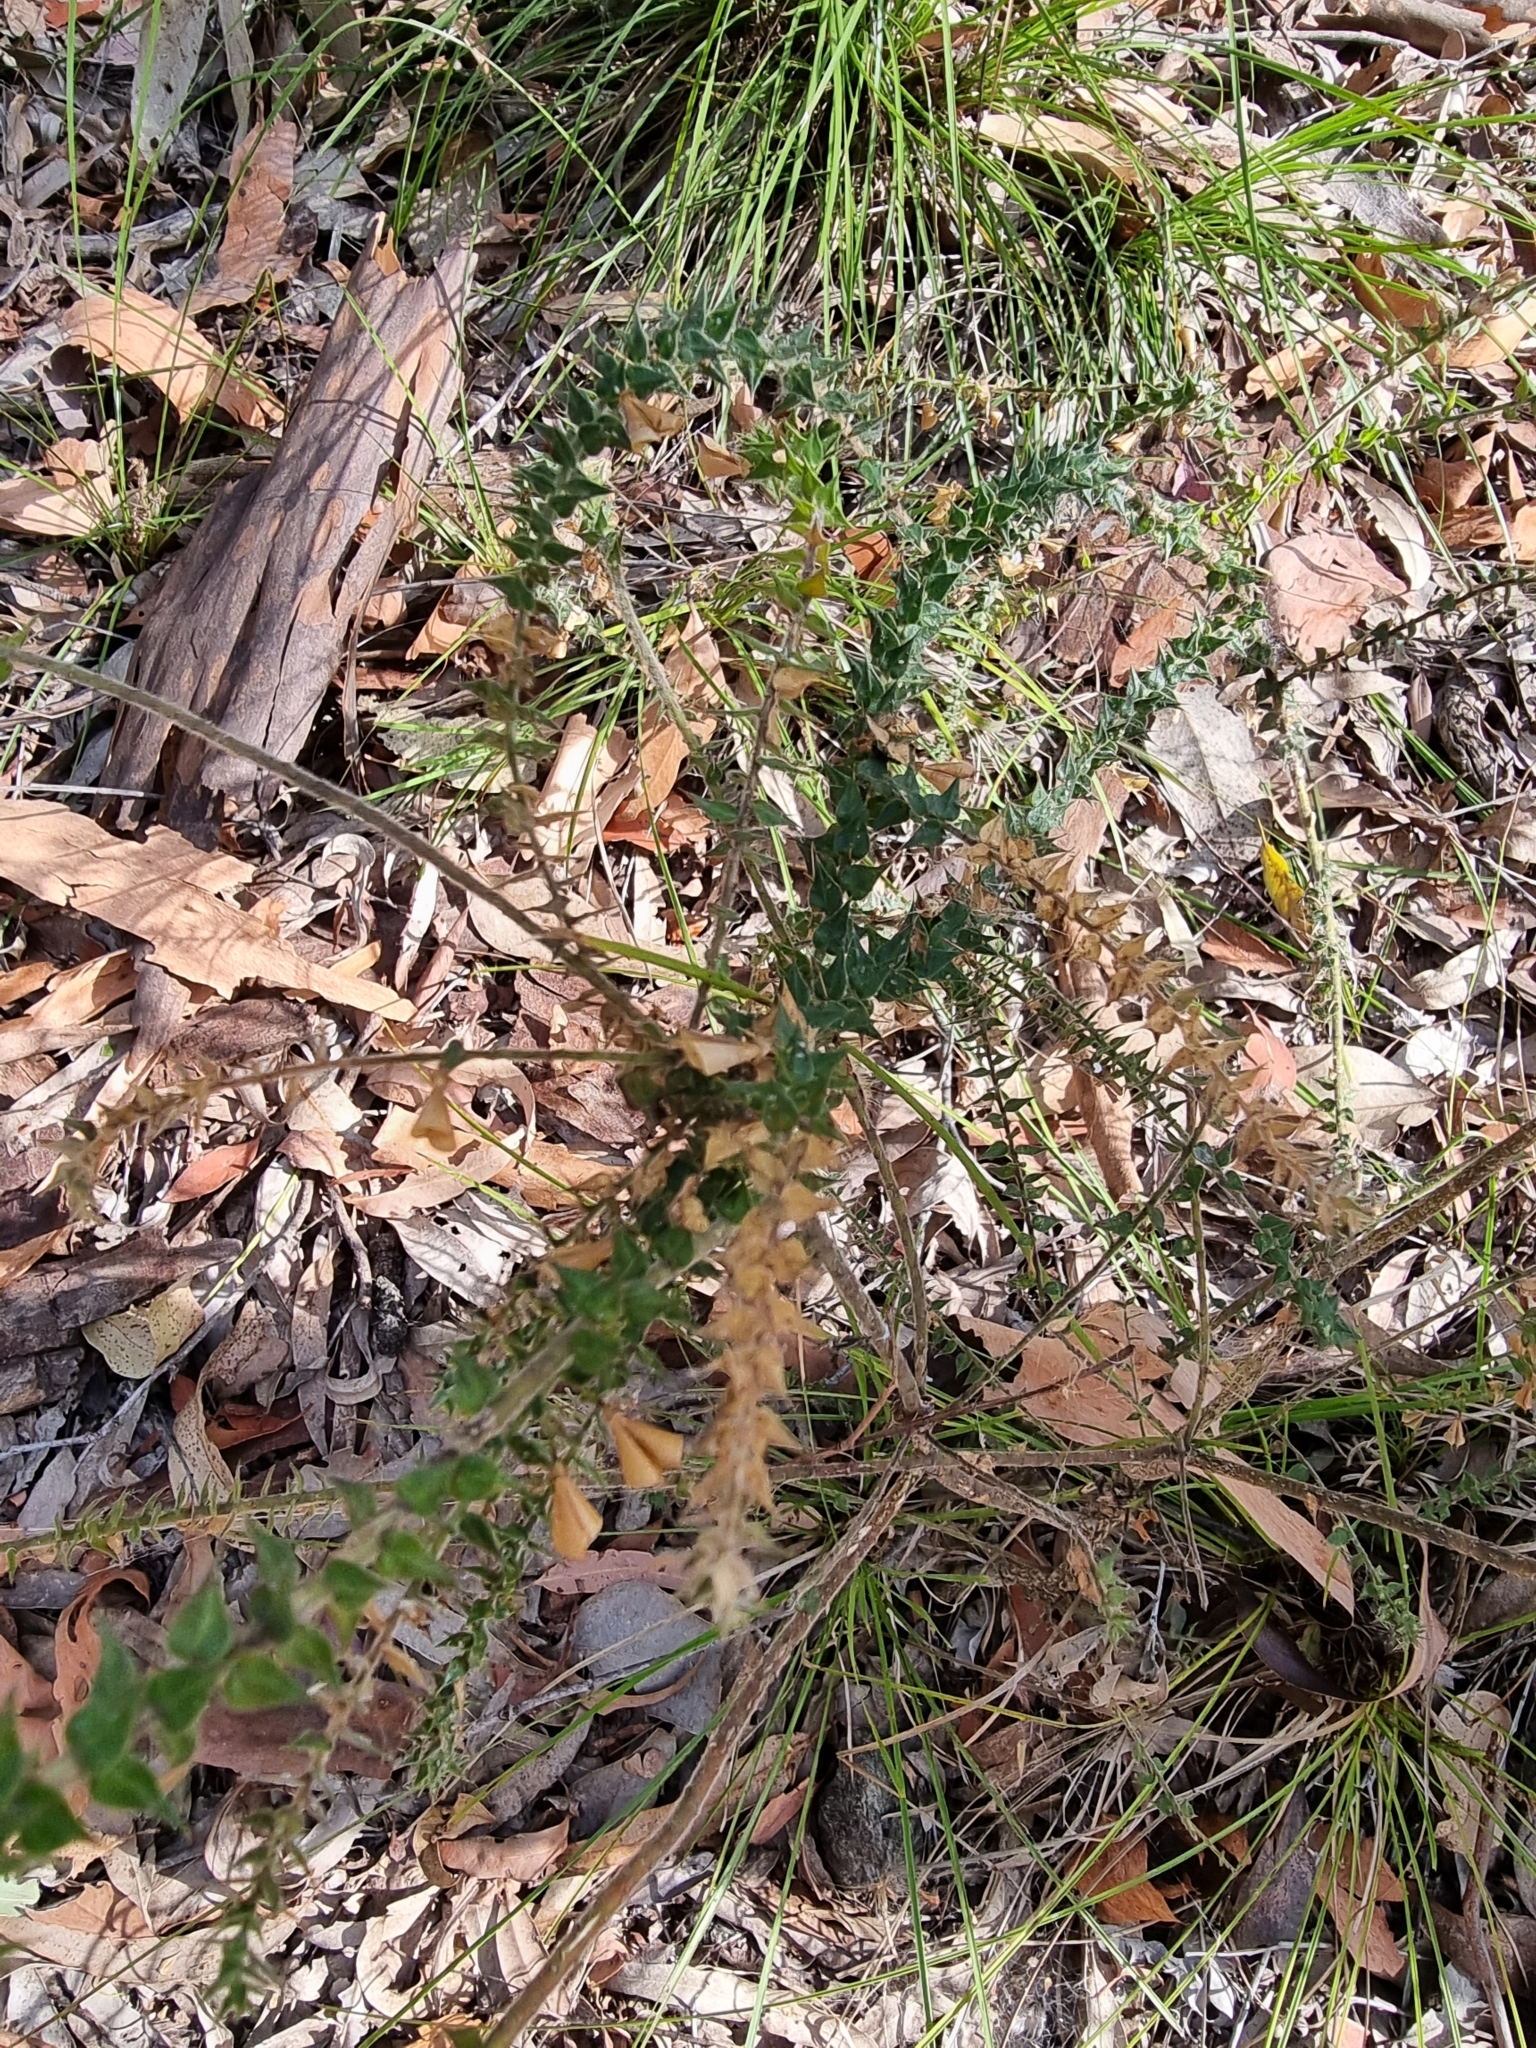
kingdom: Plantae
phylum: Tracheophyta
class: Magnoliopsida
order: Fabales
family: Fabaceae
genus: Daviesia
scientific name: Daviesia villifera
